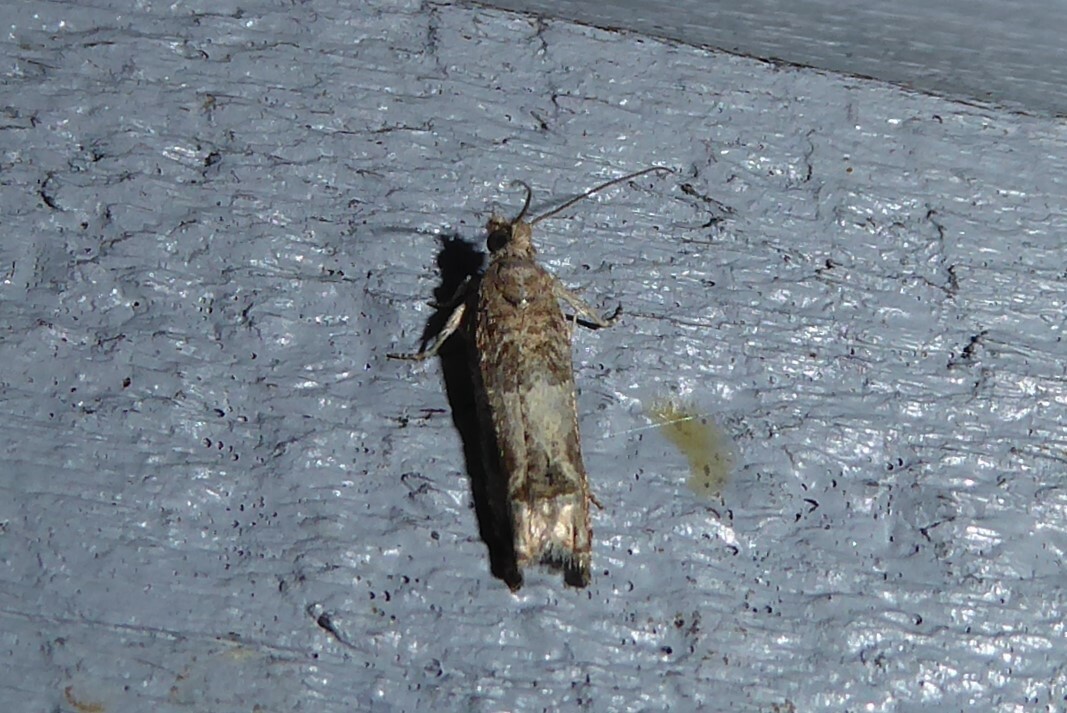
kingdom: Animalia
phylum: Arthropoda
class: Insecta
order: Lepidoptera
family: Tortricidae
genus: Crocidosema
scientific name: Crocidosema plebejana
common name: Southern bell
